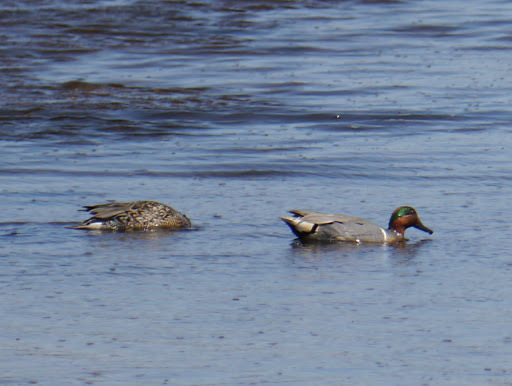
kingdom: Animalia
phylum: Chordata
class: Aves
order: Anseriformes
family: Anatidae
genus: Anas
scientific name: Anas crecca
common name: Eurasian teal
